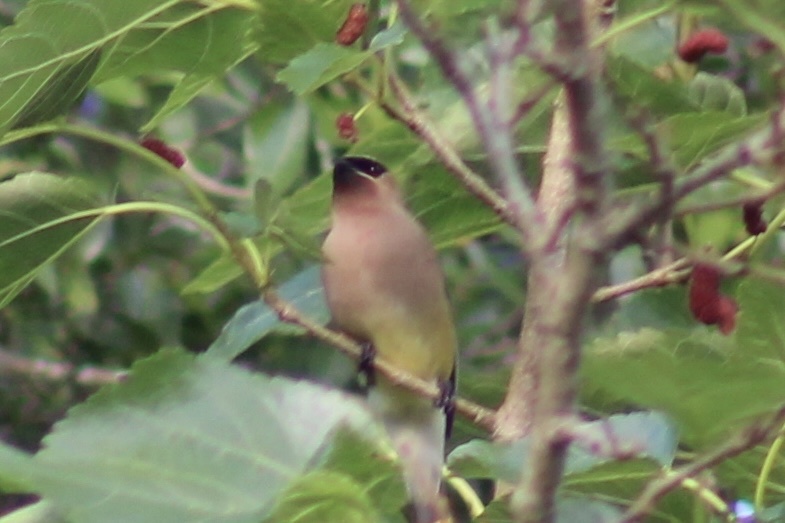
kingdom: Animalia
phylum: Chordata
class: Aves
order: Passeriformes
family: Bombycillidae
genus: Bombycilla
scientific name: Bombycilla cedrorum
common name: Cedar waxwing
